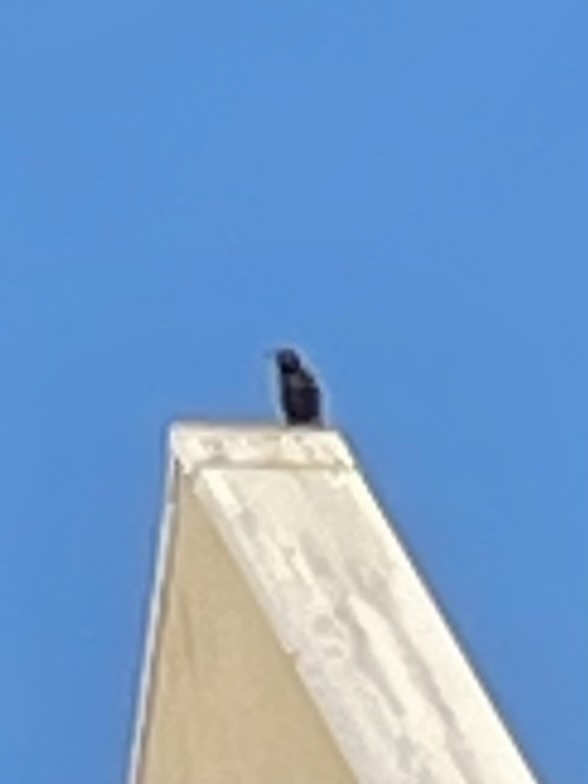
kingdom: Animalia
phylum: Chordata
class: Aves
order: Passeriformes
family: Sturnidae
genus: Sturnus
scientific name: Sturnus vulgaris
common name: Common starling
